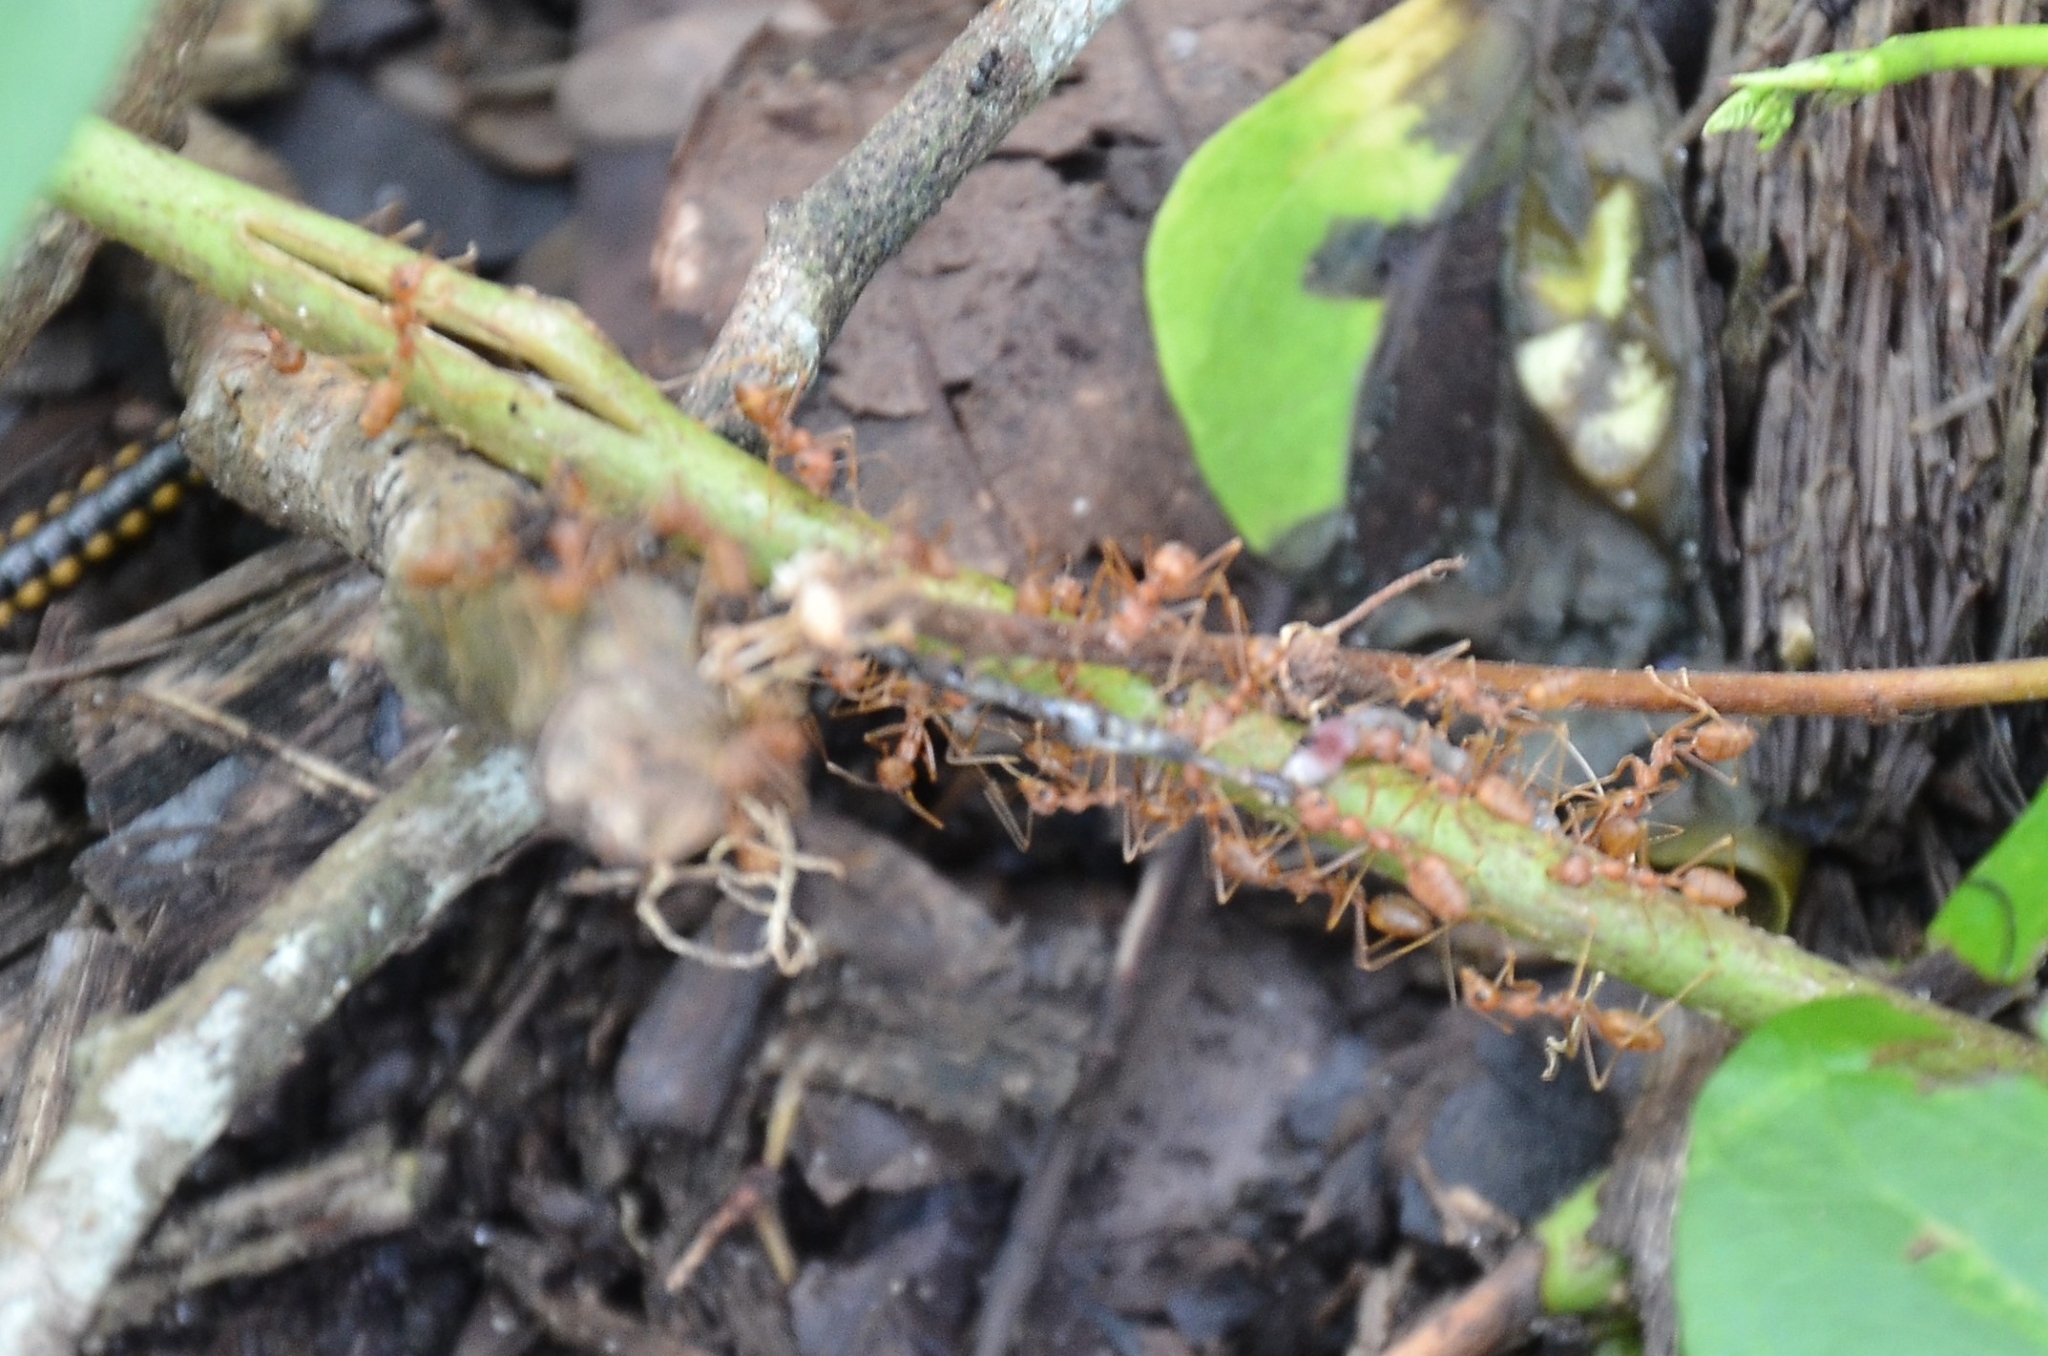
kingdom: Animalia
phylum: Arthropoda
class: Insecta
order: Hymenoptera
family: Formicidae
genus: Oecophylla
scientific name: Oecophylla smaragdina
